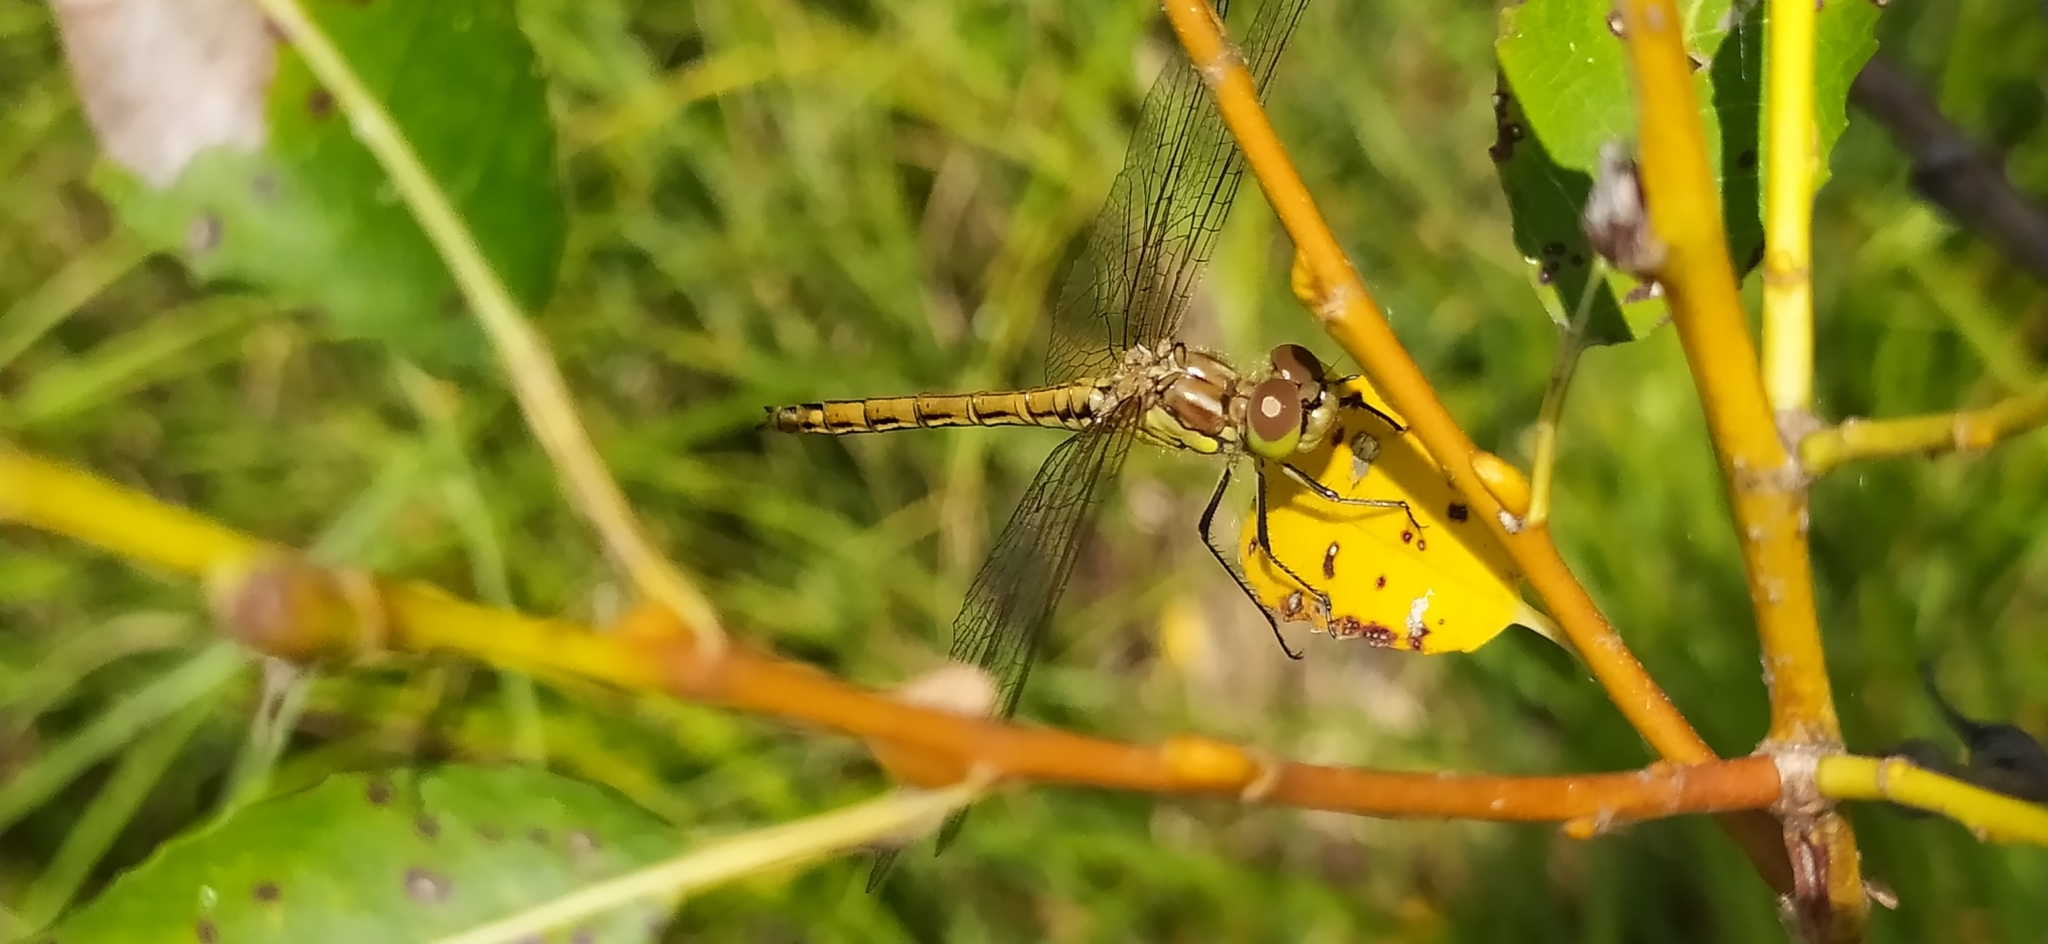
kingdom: Animalia
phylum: Arthropoda
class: Insecta
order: Odonata
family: Libellulidae
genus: Sympetrum
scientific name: Sympetrum vulgatum
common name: Vagrant darter
